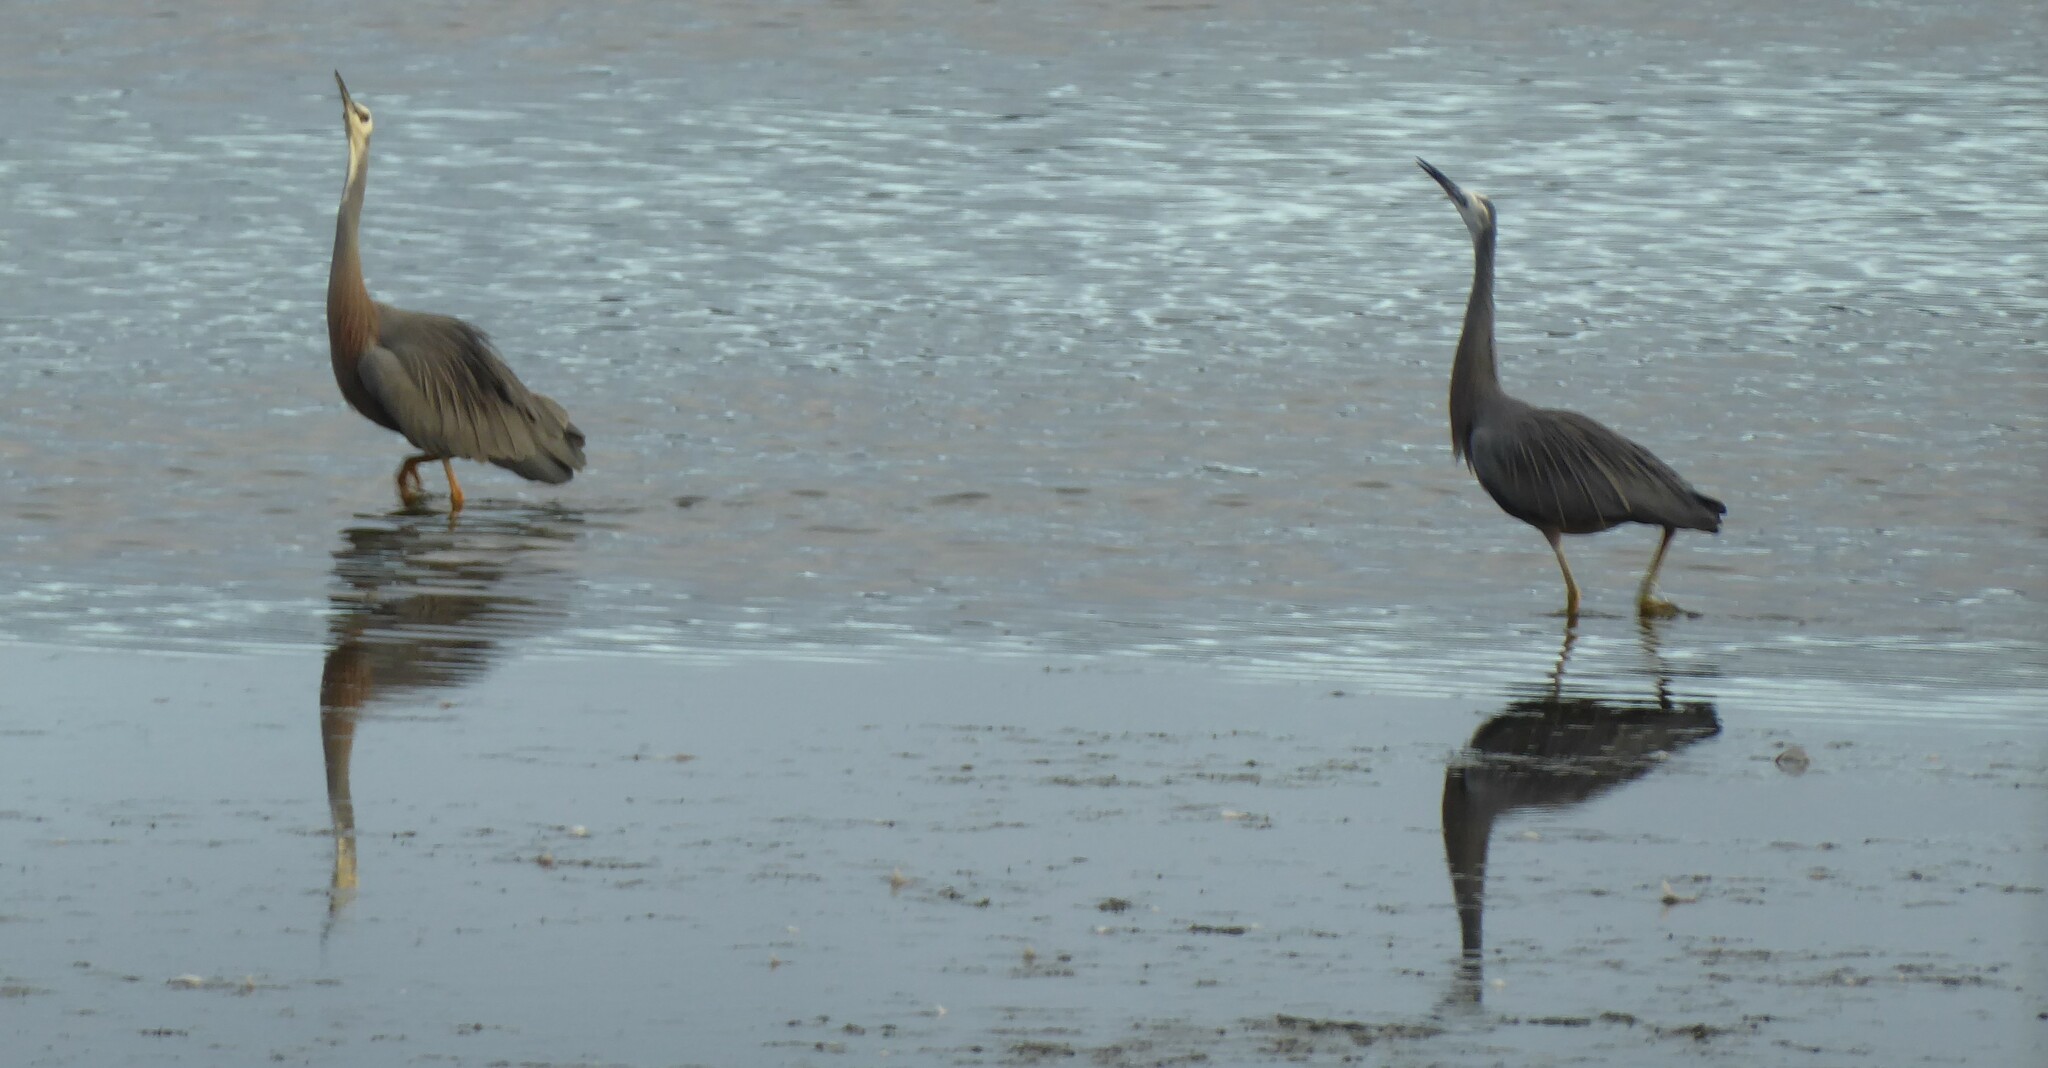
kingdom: Animalia
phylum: Chordata
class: Aves
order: Pelecaniformes
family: Ardeidae
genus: Egretta
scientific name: Egretta novaehollandiae
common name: White-faced heron
